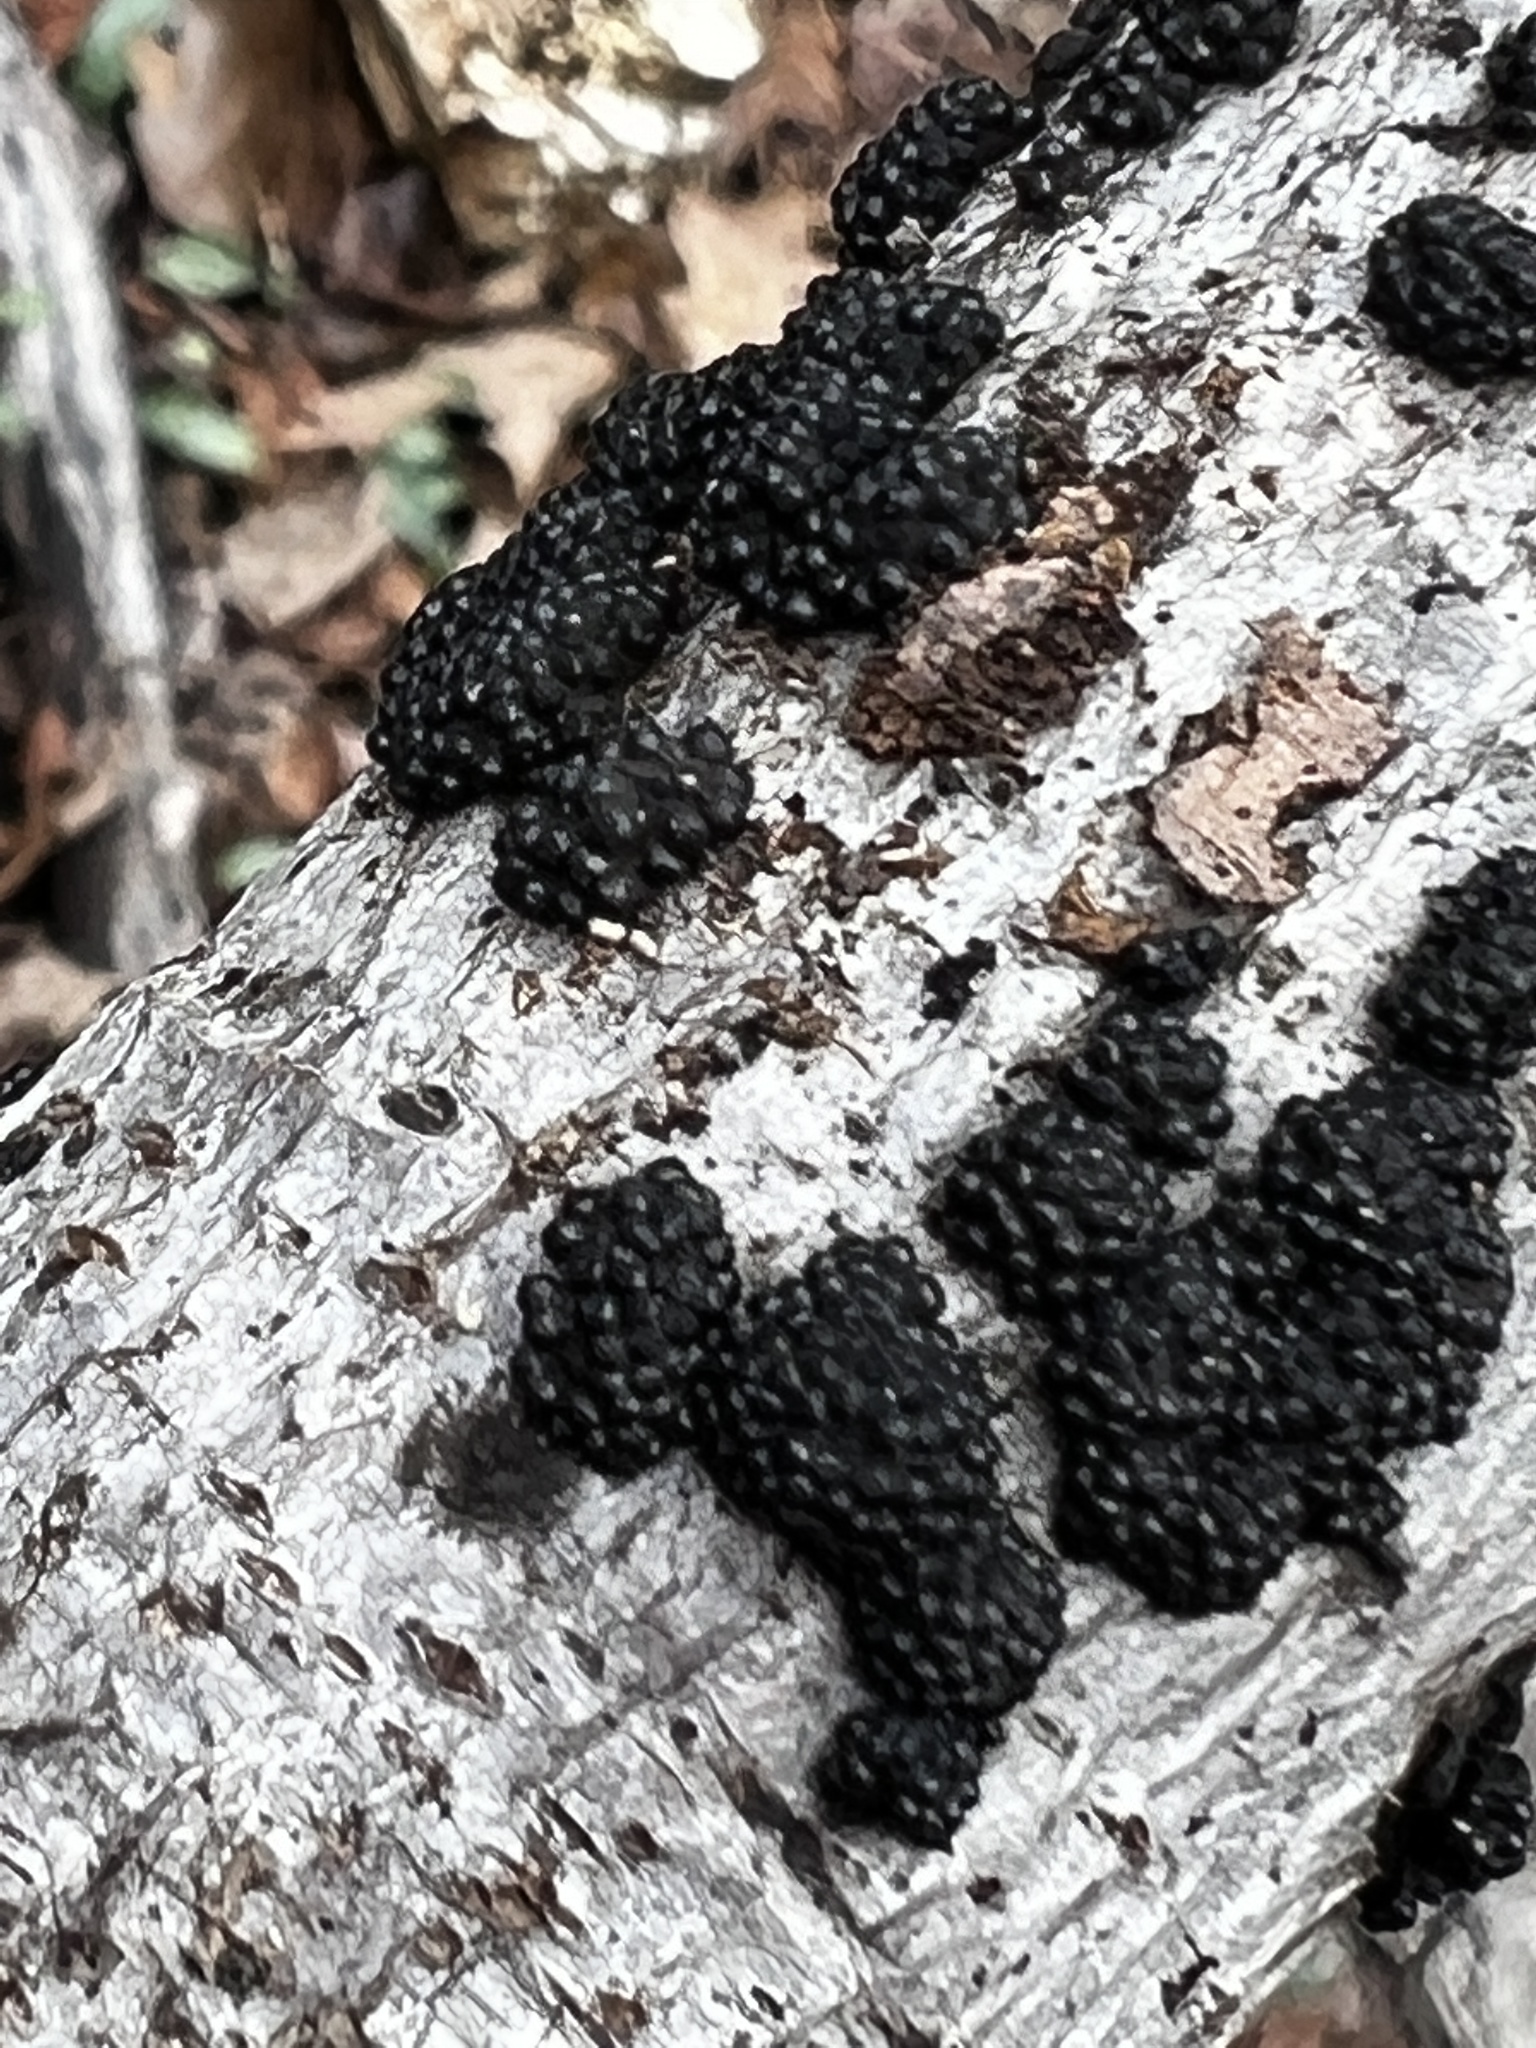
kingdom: Fungi
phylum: Ascomycota
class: Sordariomycetes
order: Xylariales
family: Hypoxylaceae
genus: Annulohypoxylon
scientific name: Annulohypoxylon truncatum
